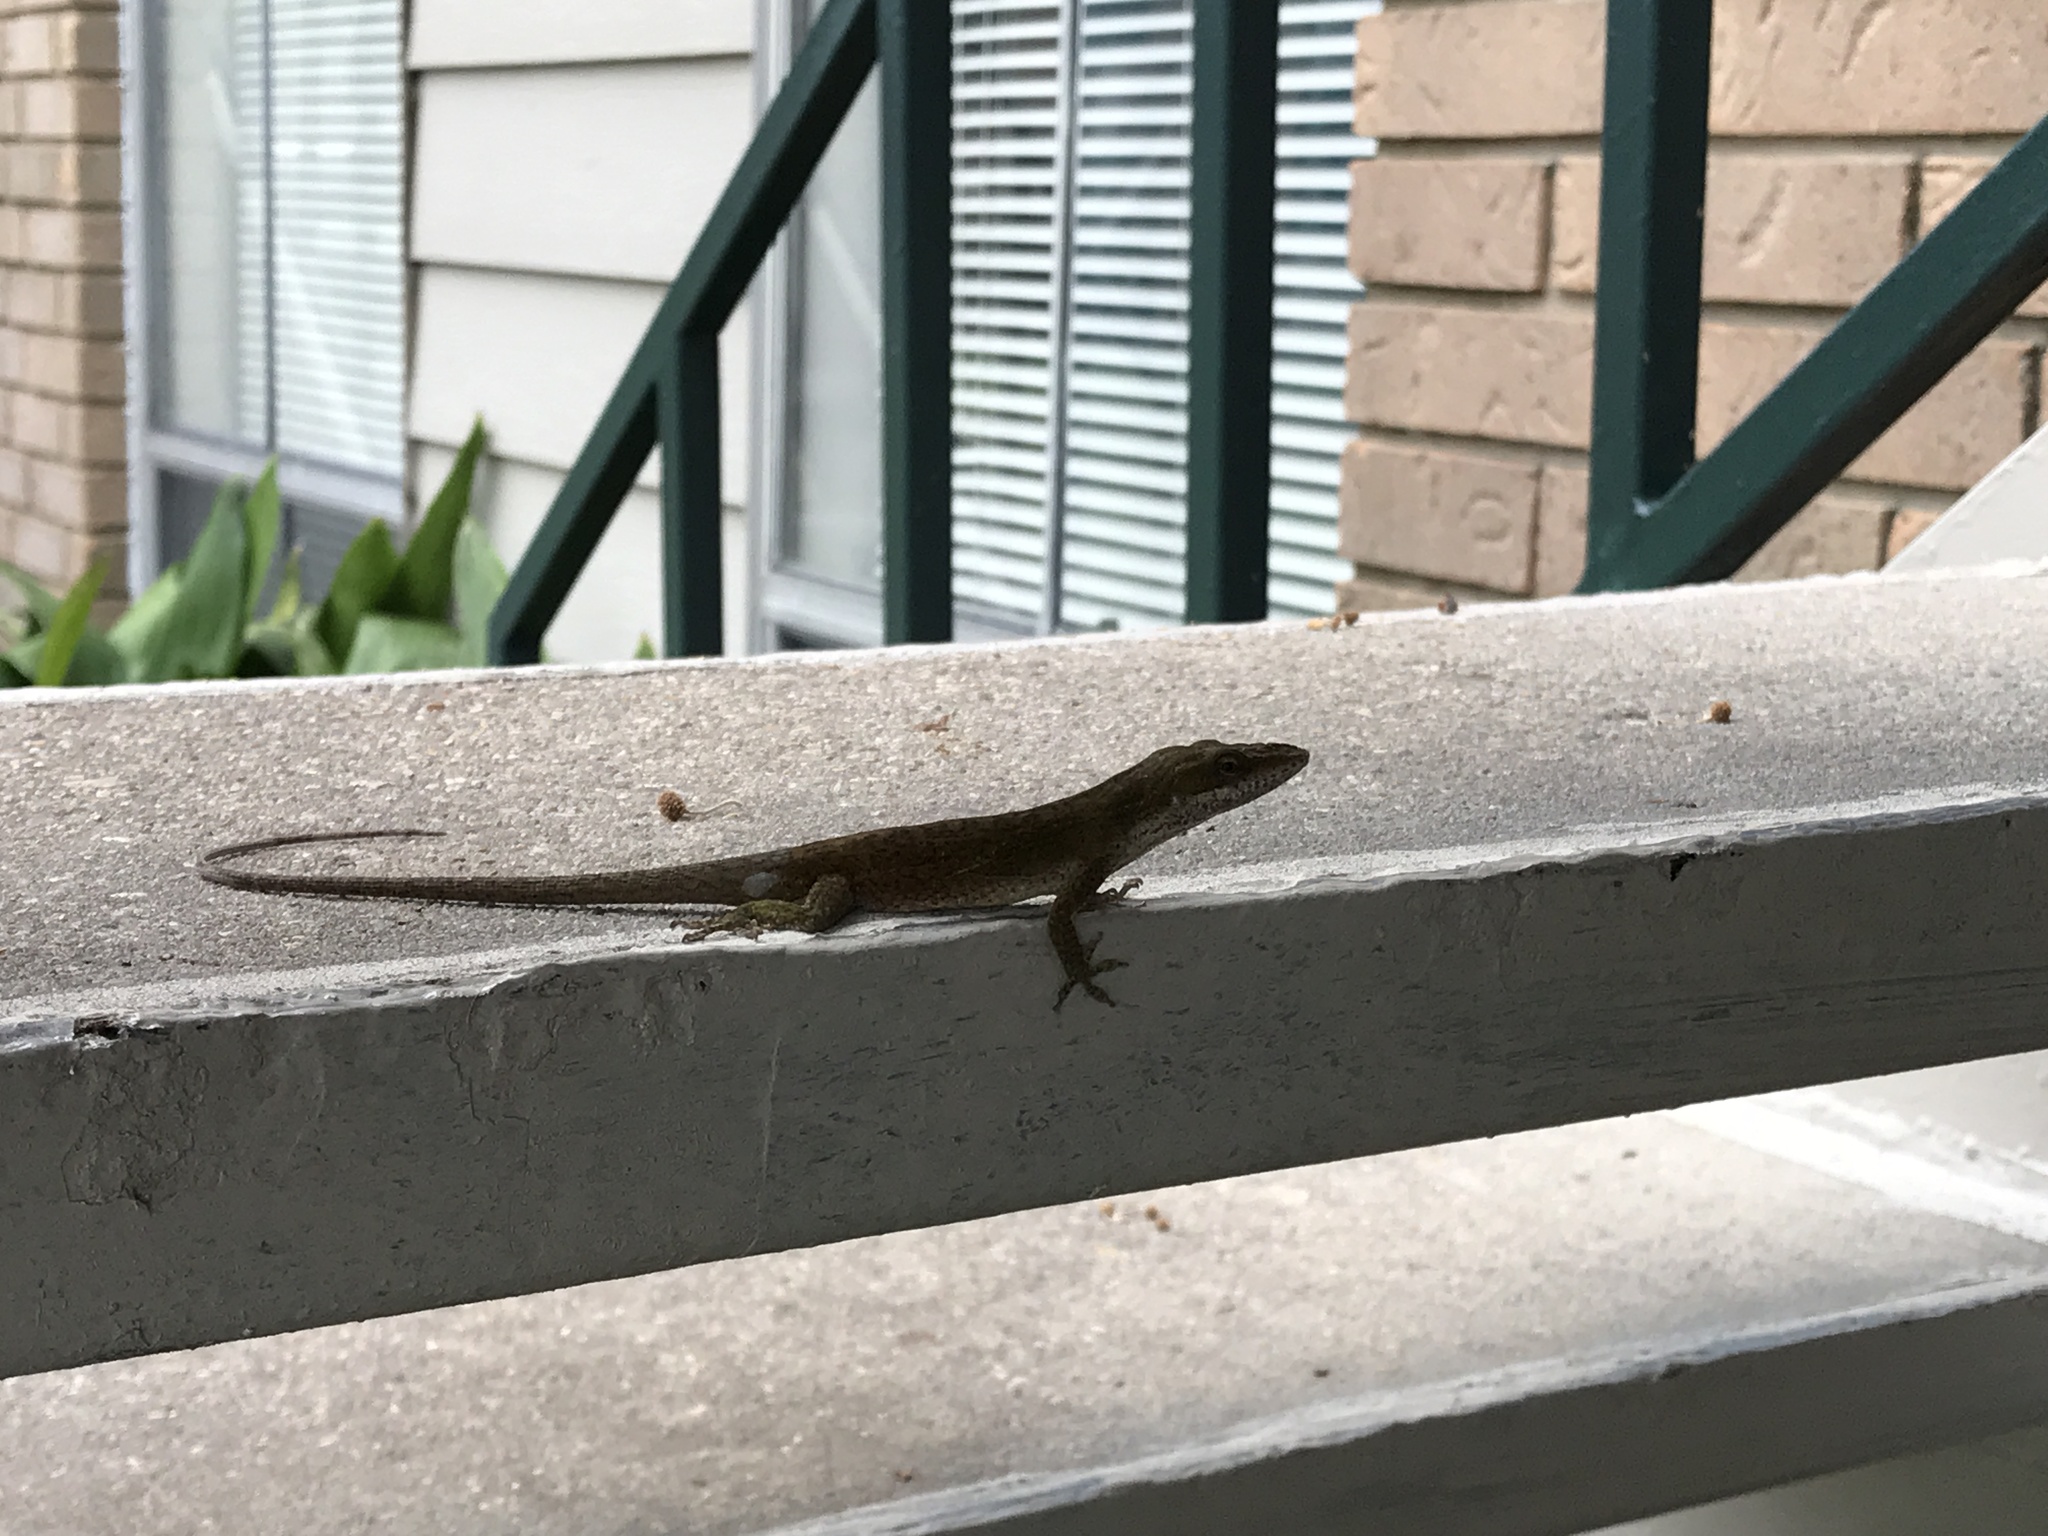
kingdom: Animalia
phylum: Chordata
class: Squamata
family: Dactyloidae
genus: Anolis
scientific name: Anolis carolinensis
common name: Green anole
